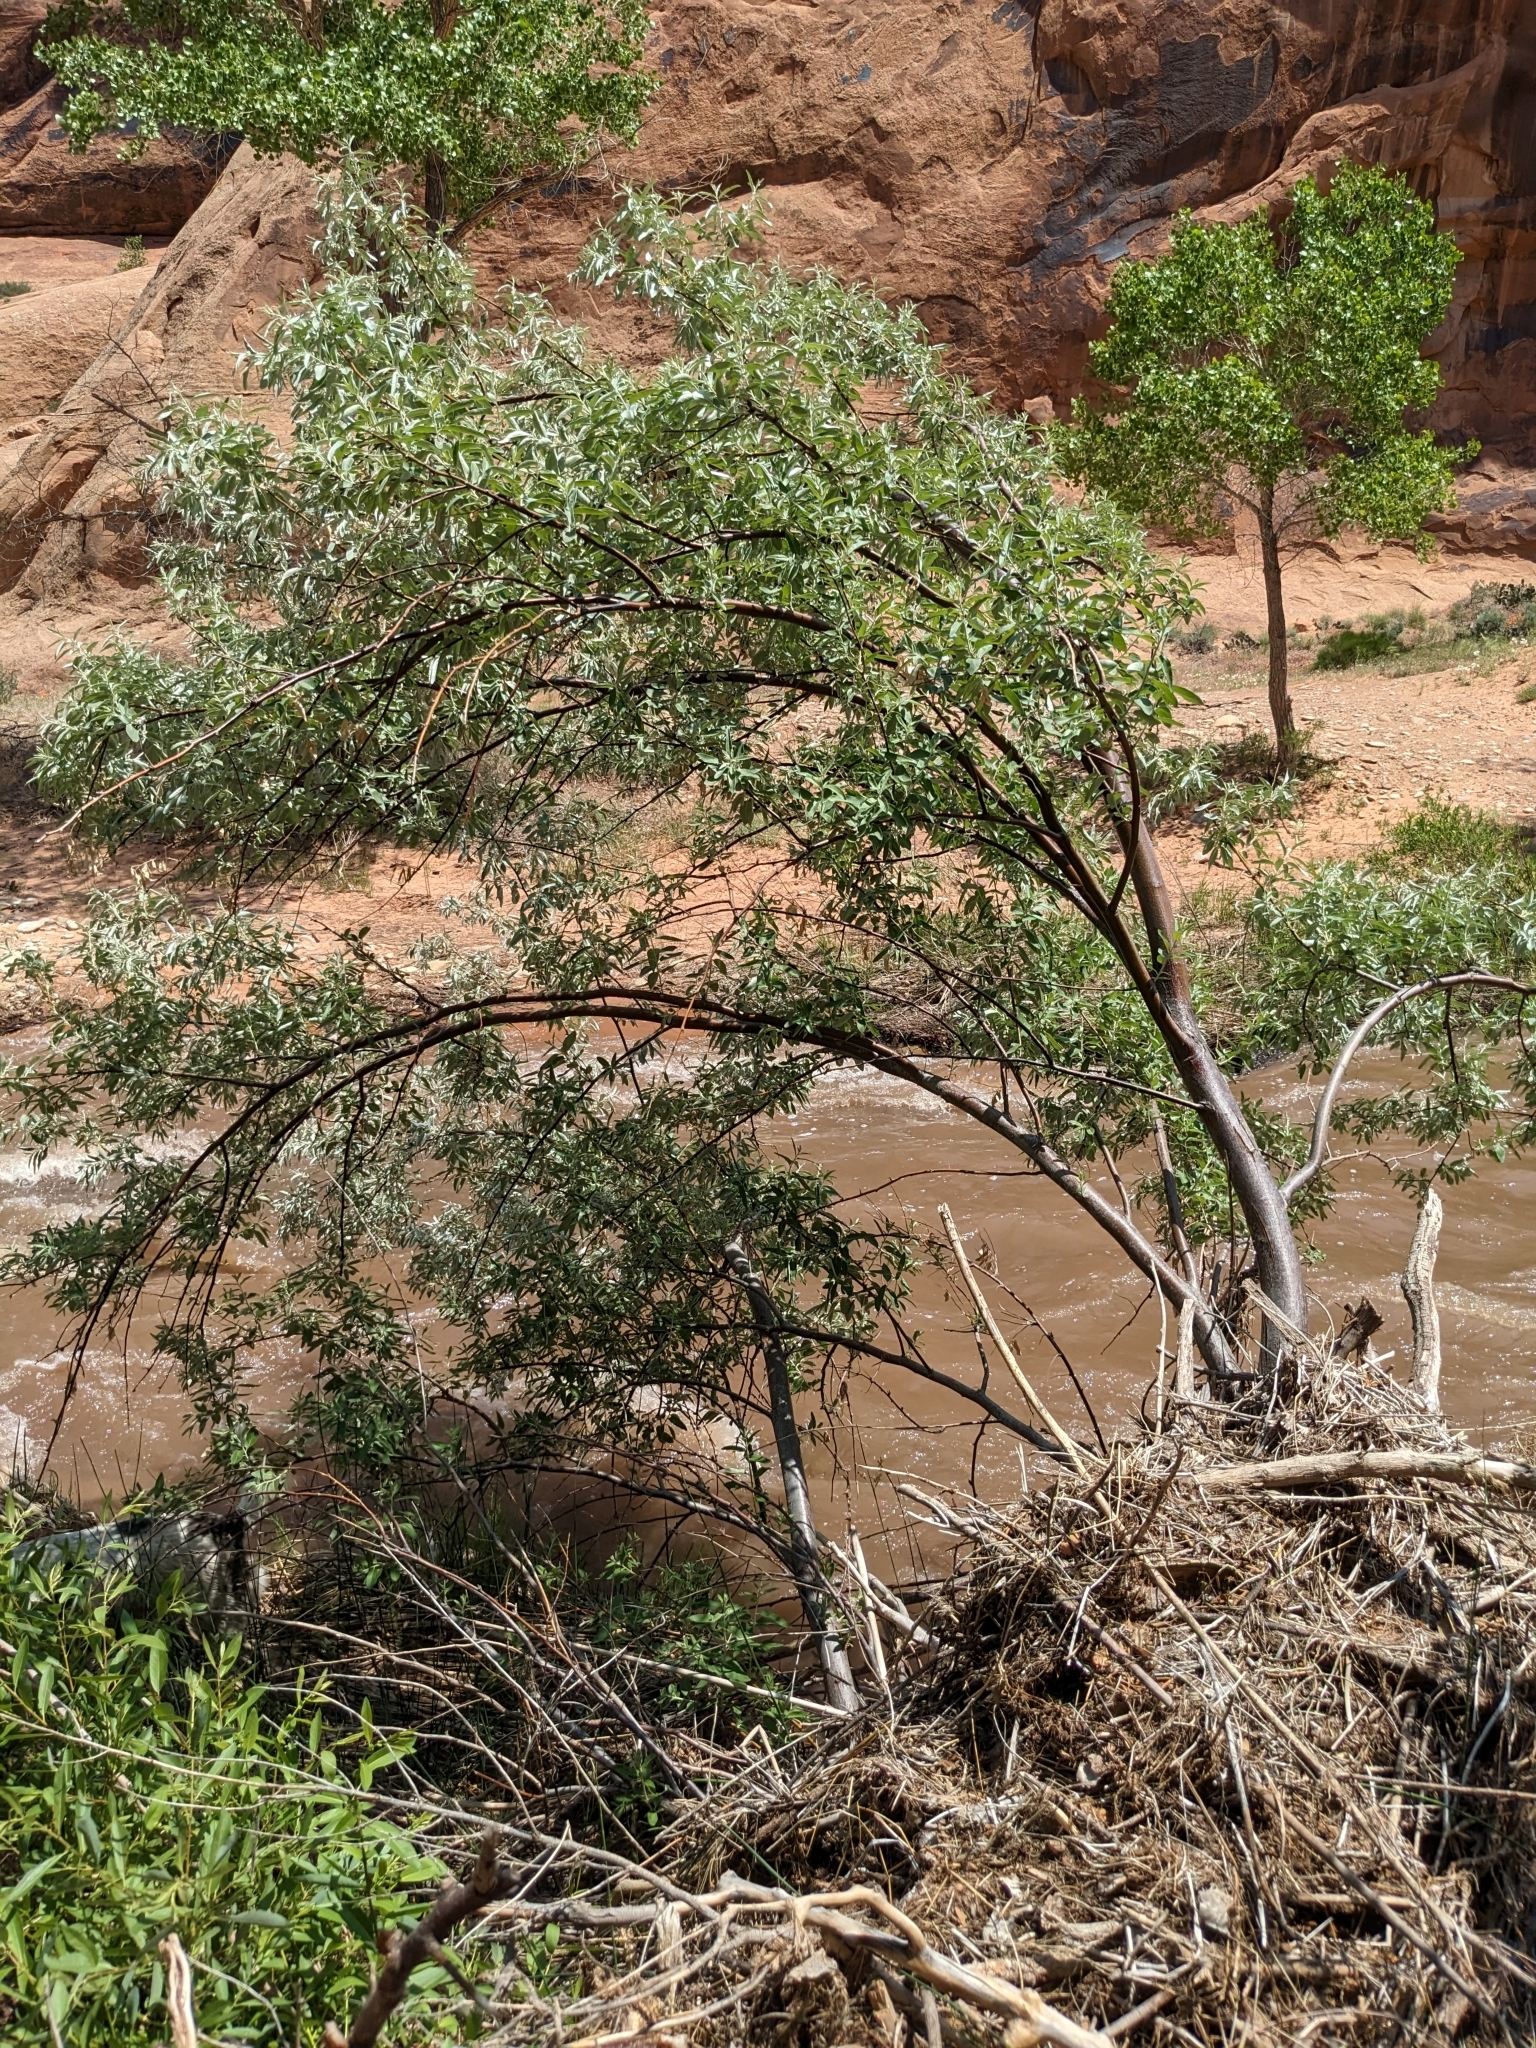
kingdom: Plantae
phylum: Tracheophyta
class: Magnoliopsida
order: Rosales
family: Elaeagnaceae
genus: Elaeagnus
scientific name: Elaeagnus angustifolia
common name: Russian olive
